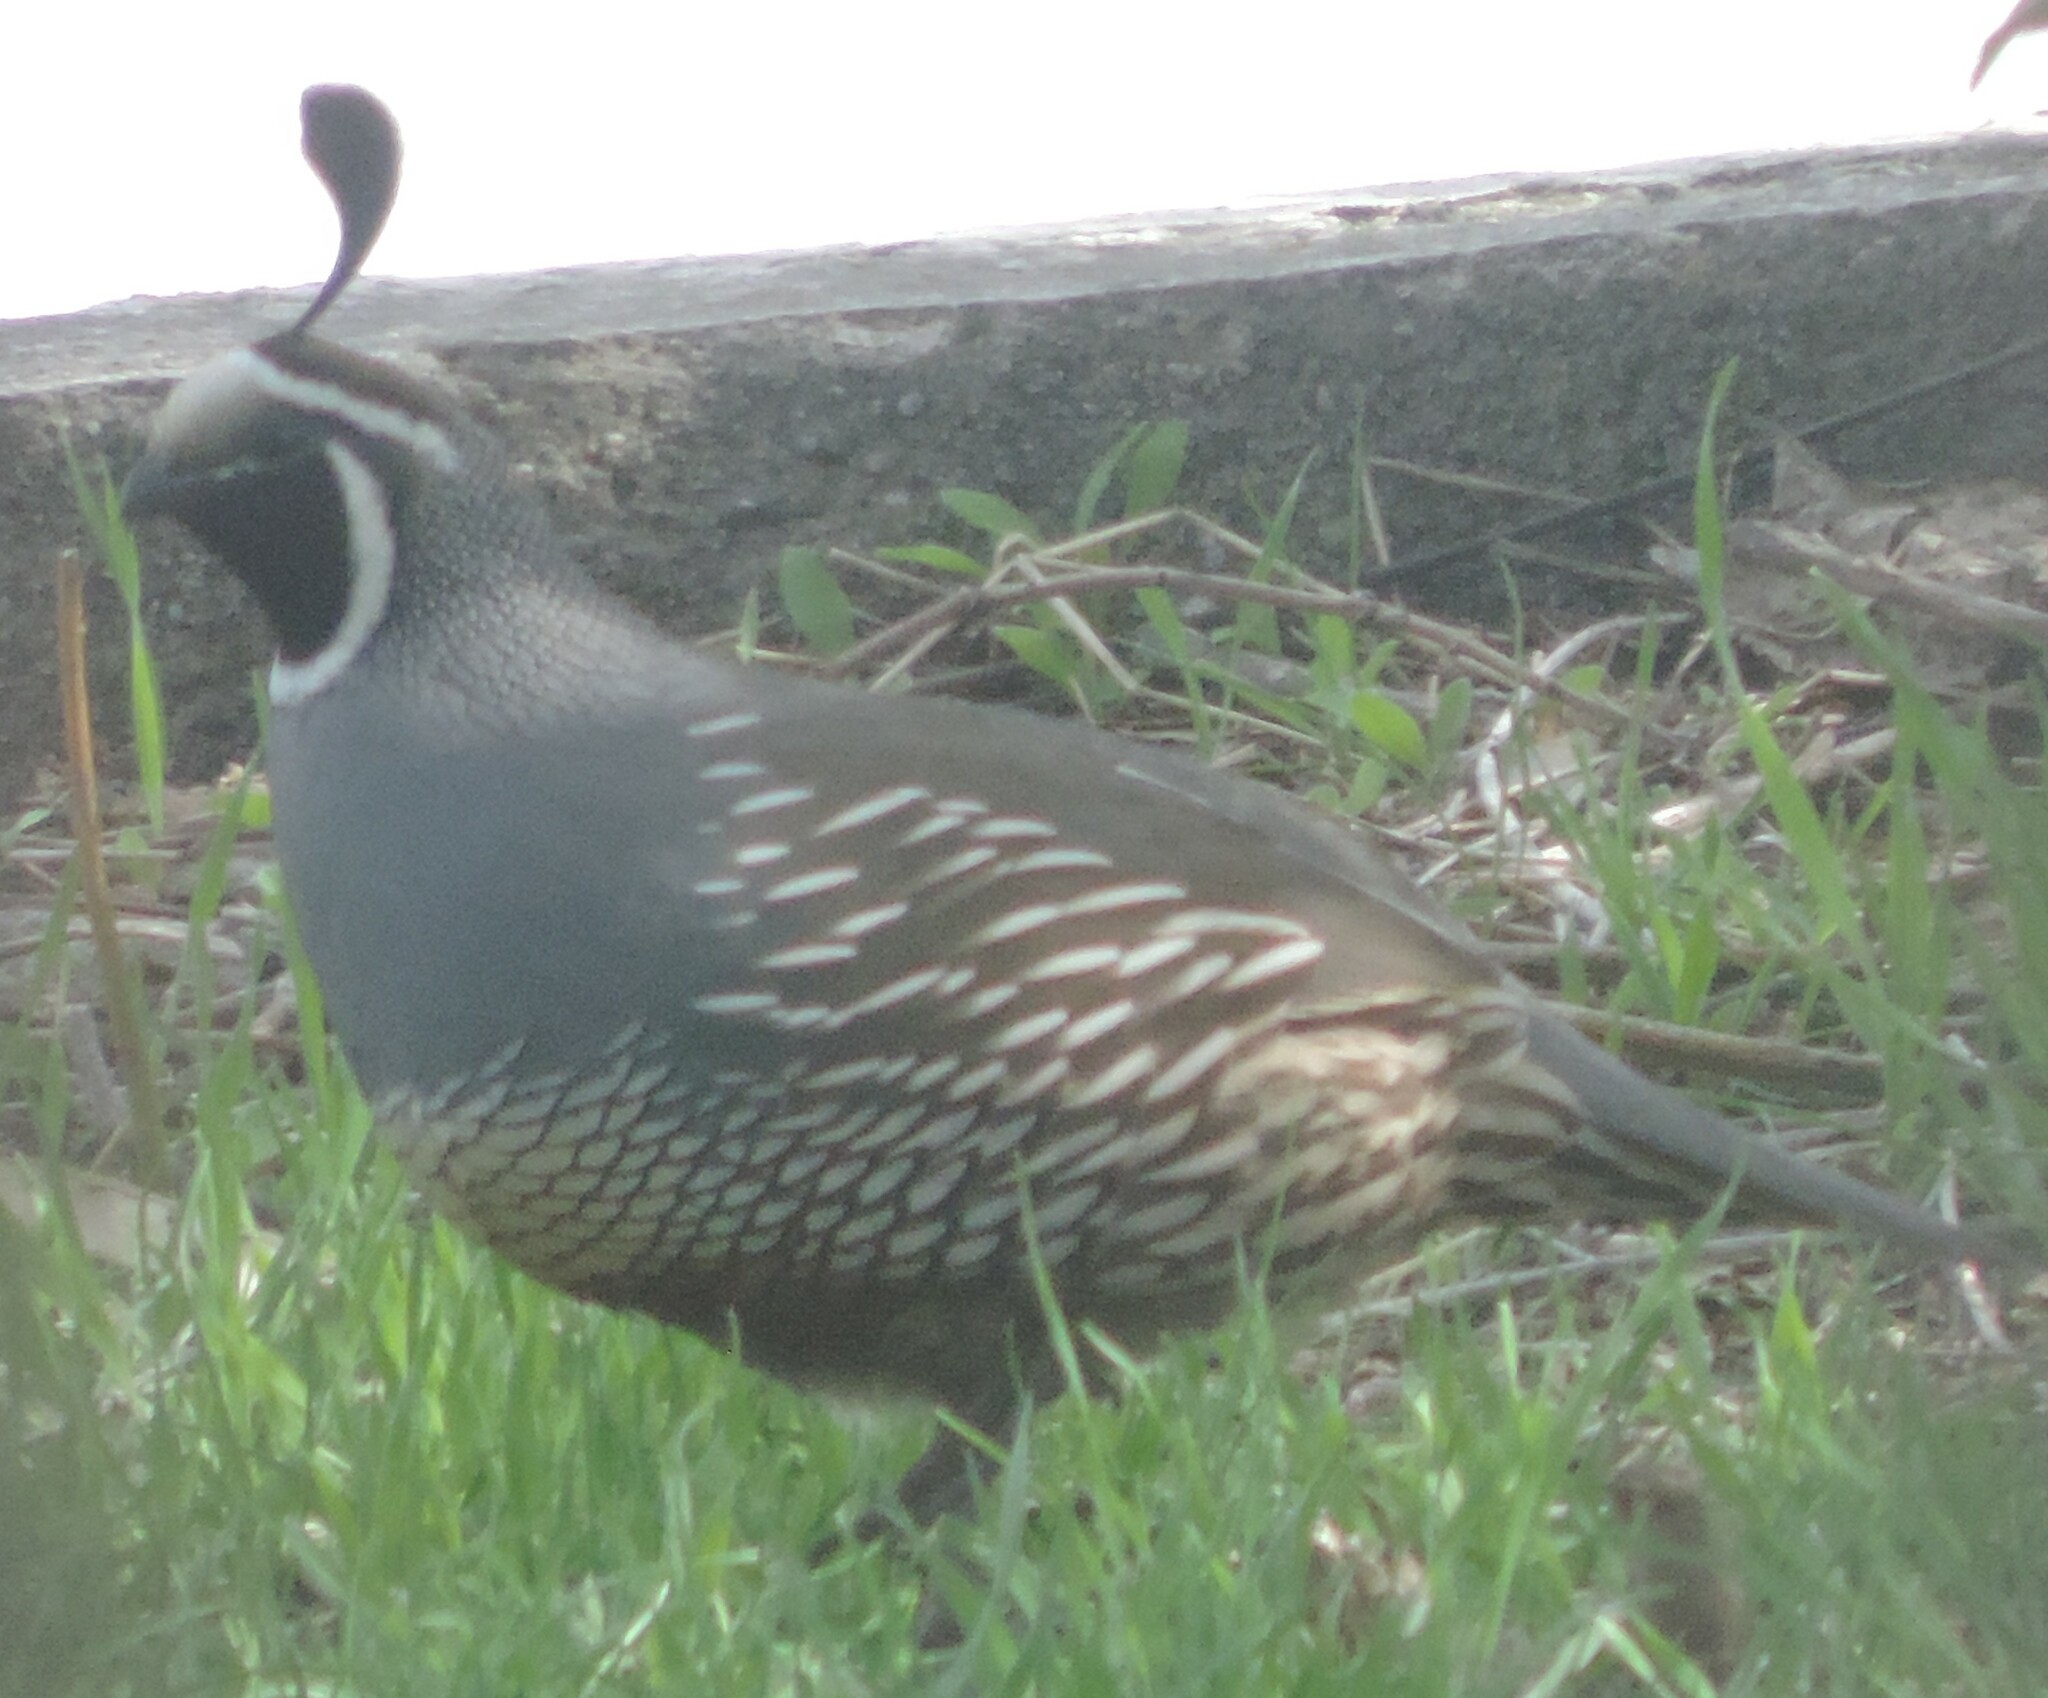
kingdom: Animalia
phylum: Chordata
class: Aves
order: Galliformes
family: Odontophoridae
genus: Callipepla
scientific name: Callipepla californica
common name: California quail
